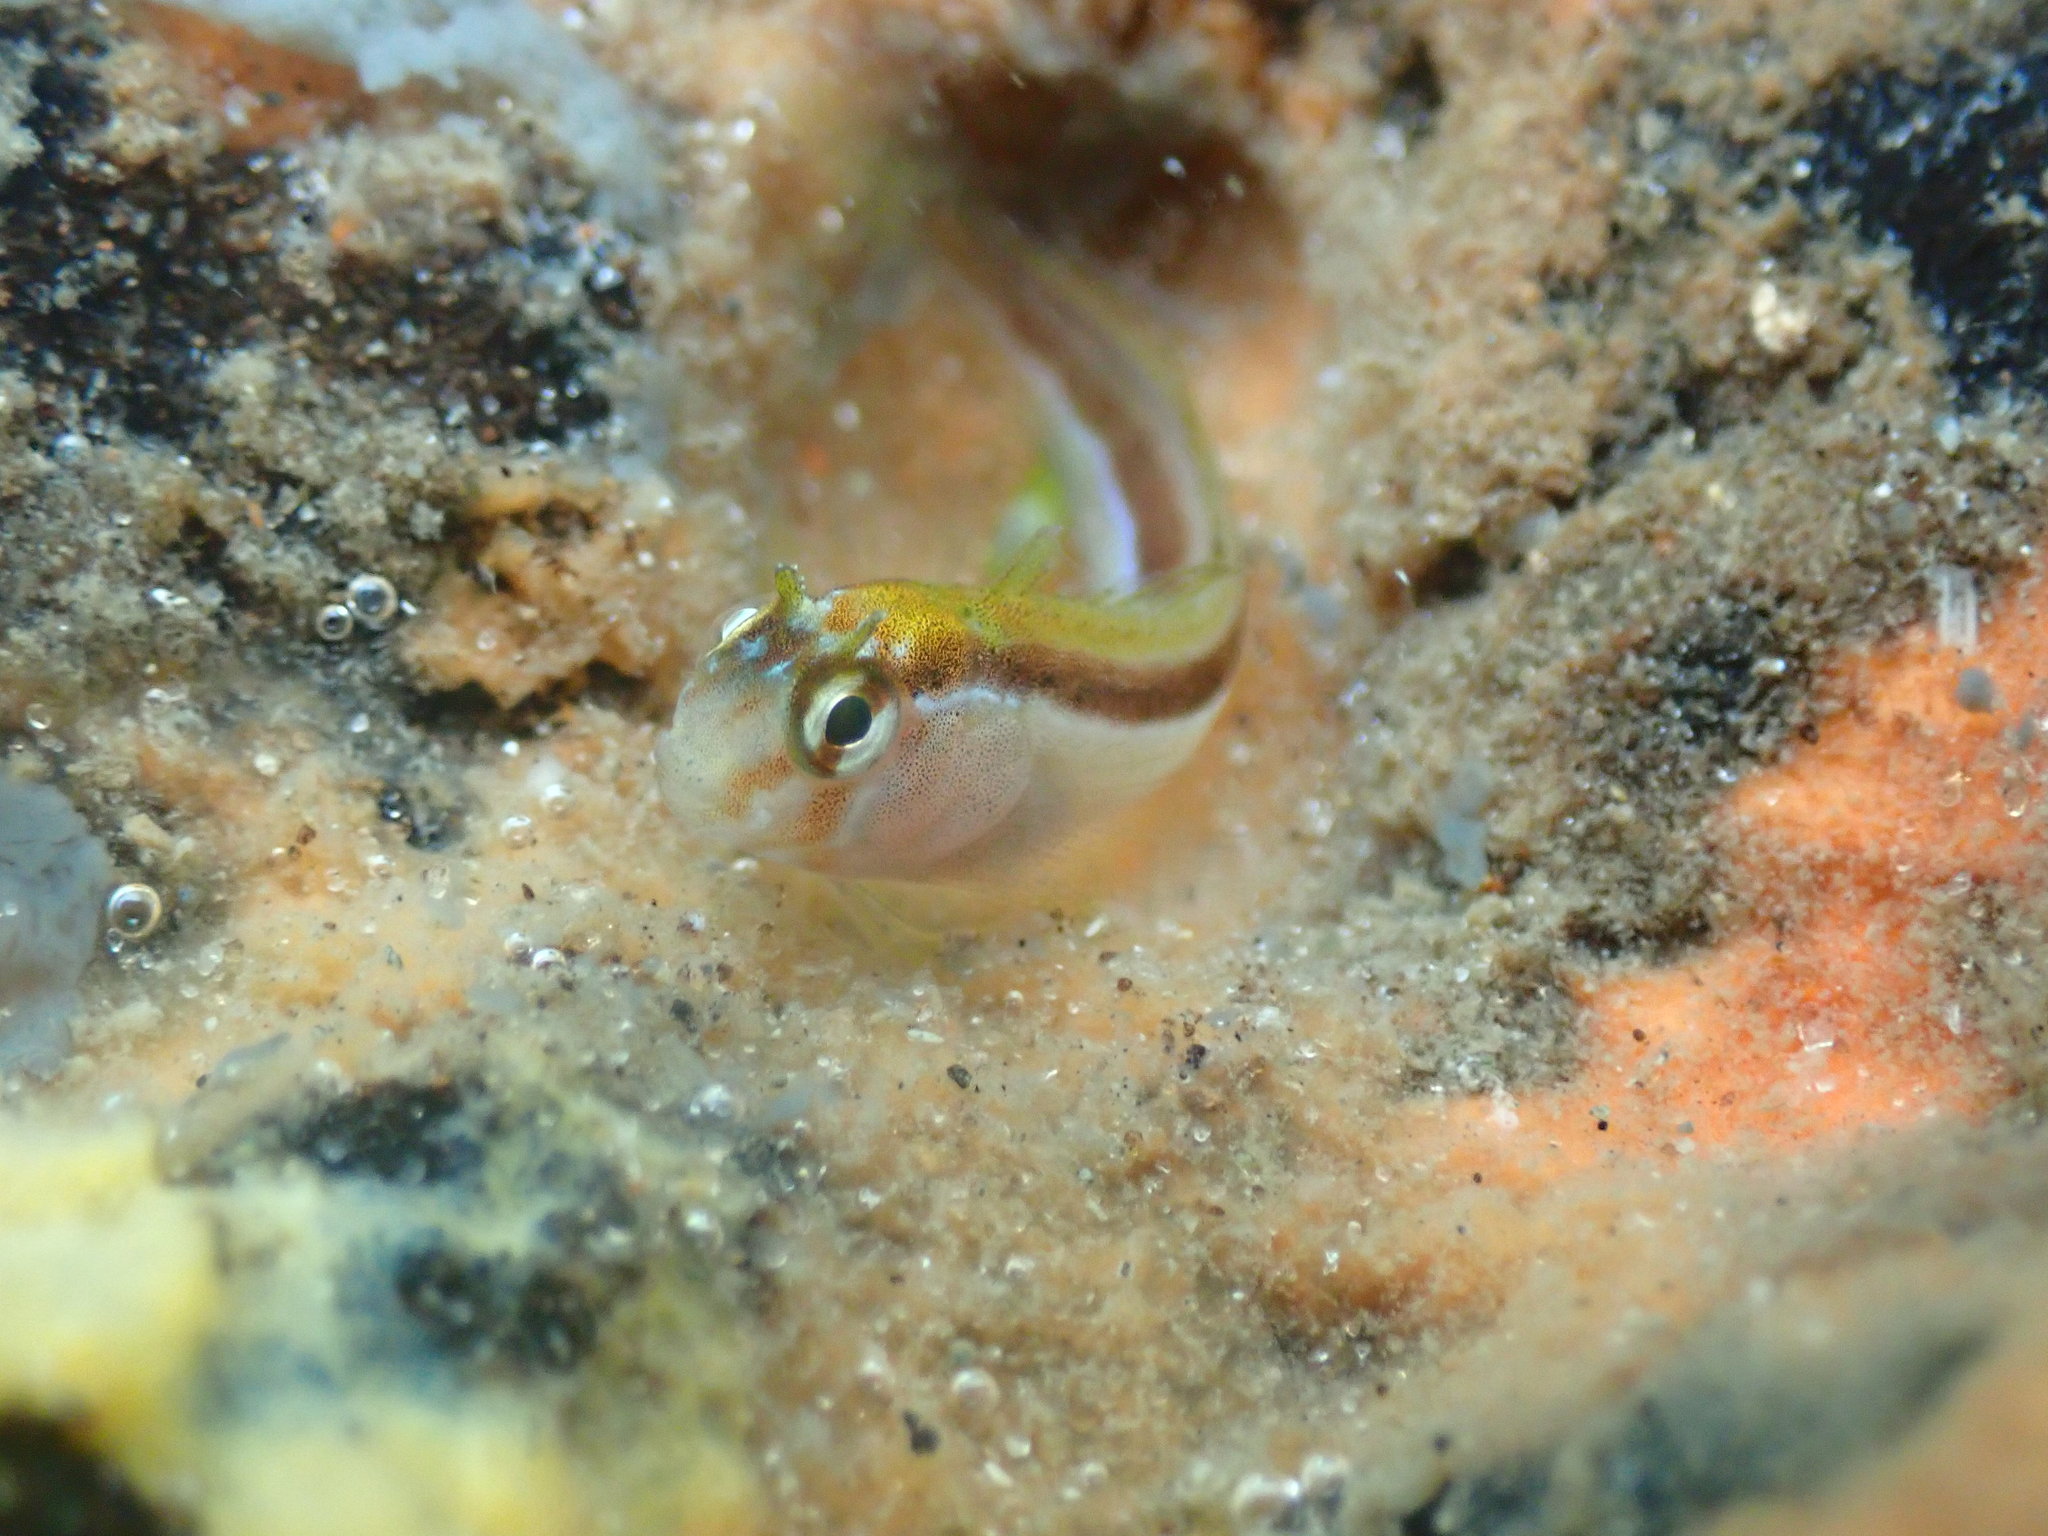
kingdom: Animalia
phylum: Chordata
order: Perciformes
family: Blenniidae
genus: Parablennius
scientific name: Parablennius laticlavius
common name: Crested blenny
